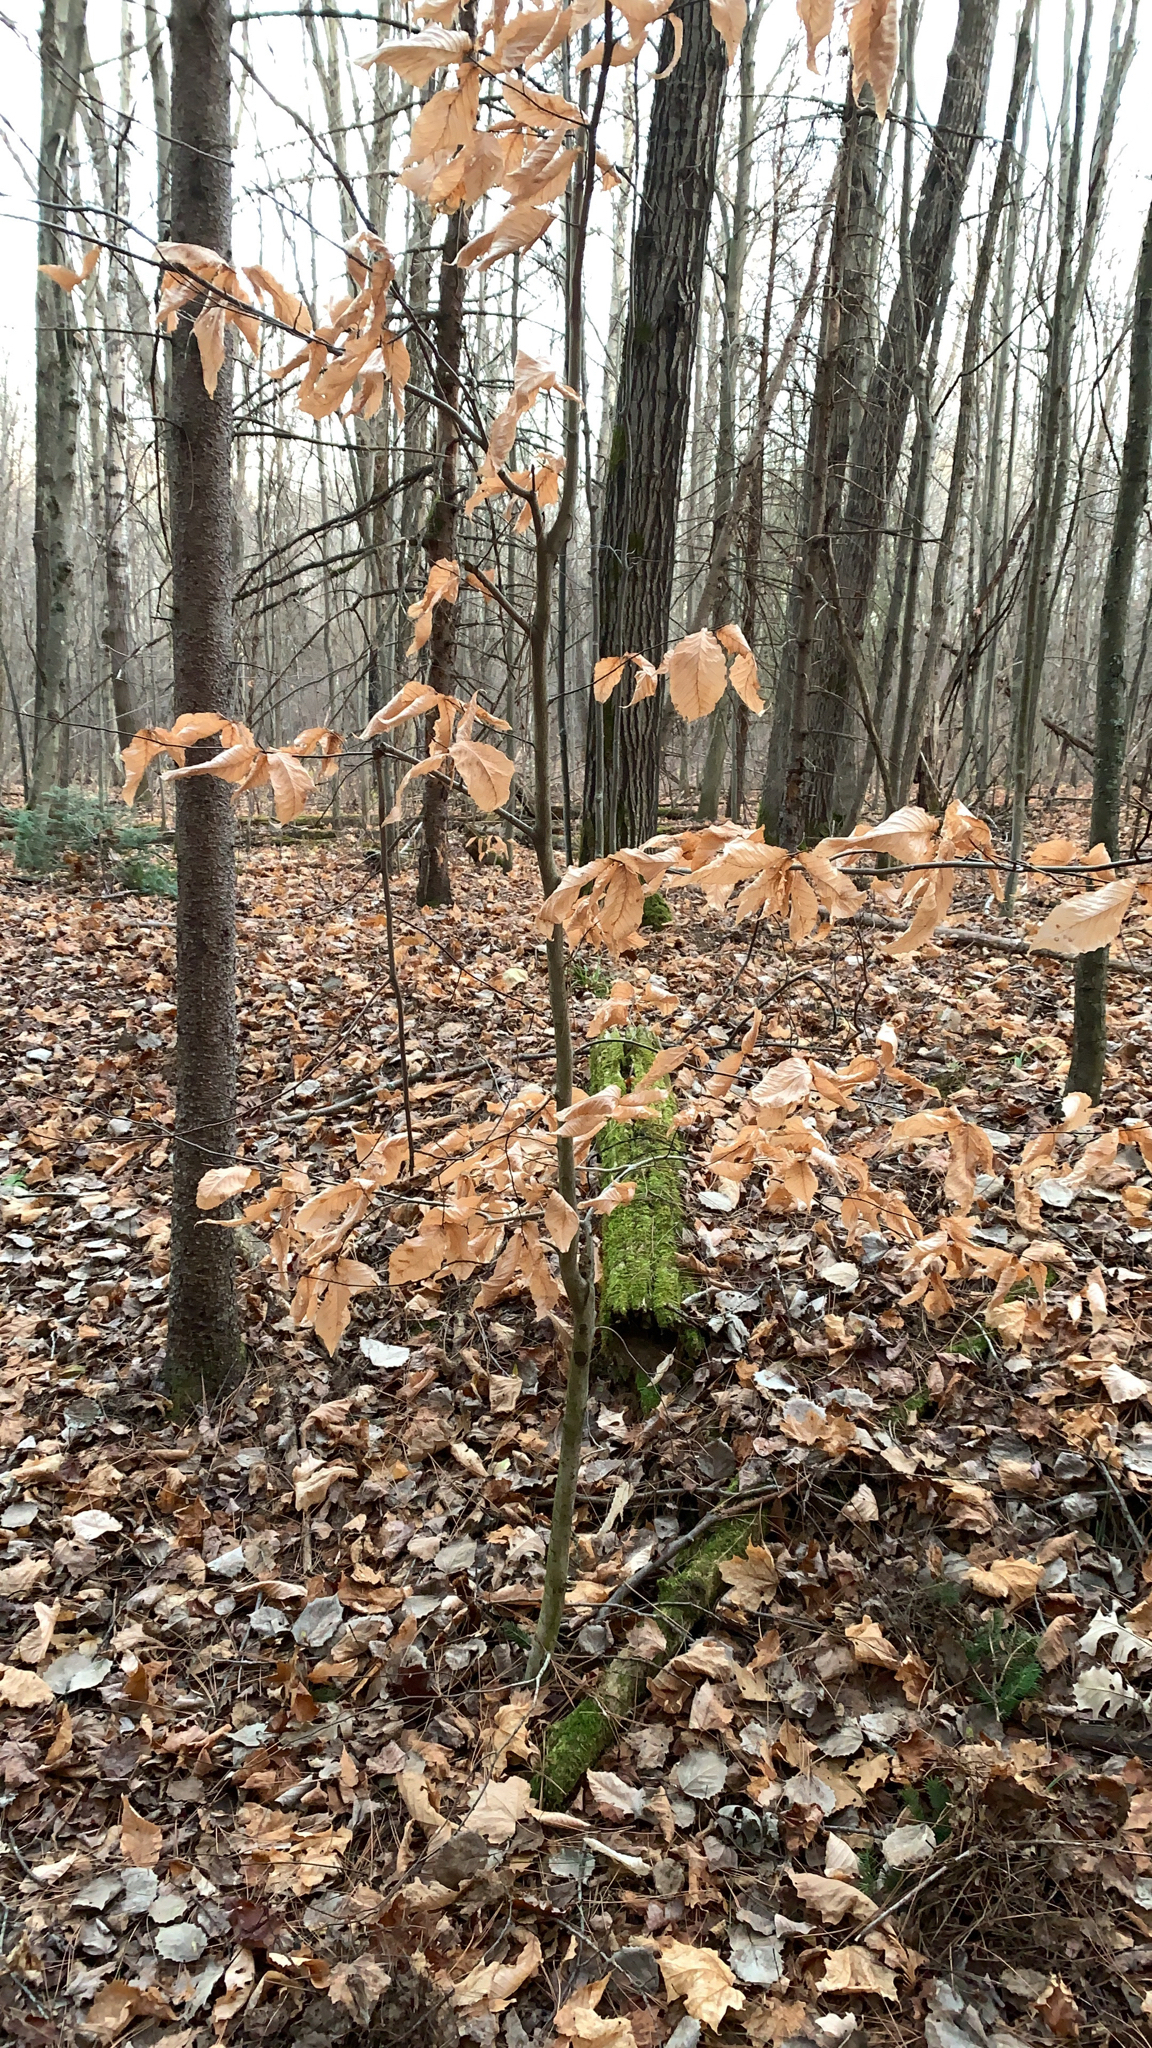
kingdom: Plantae
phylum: Tracheophyta
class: Magnoliopsida
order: Fagales
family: Fagaceae
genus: Fagus
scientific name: Fagus grandifolia
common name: American beech
